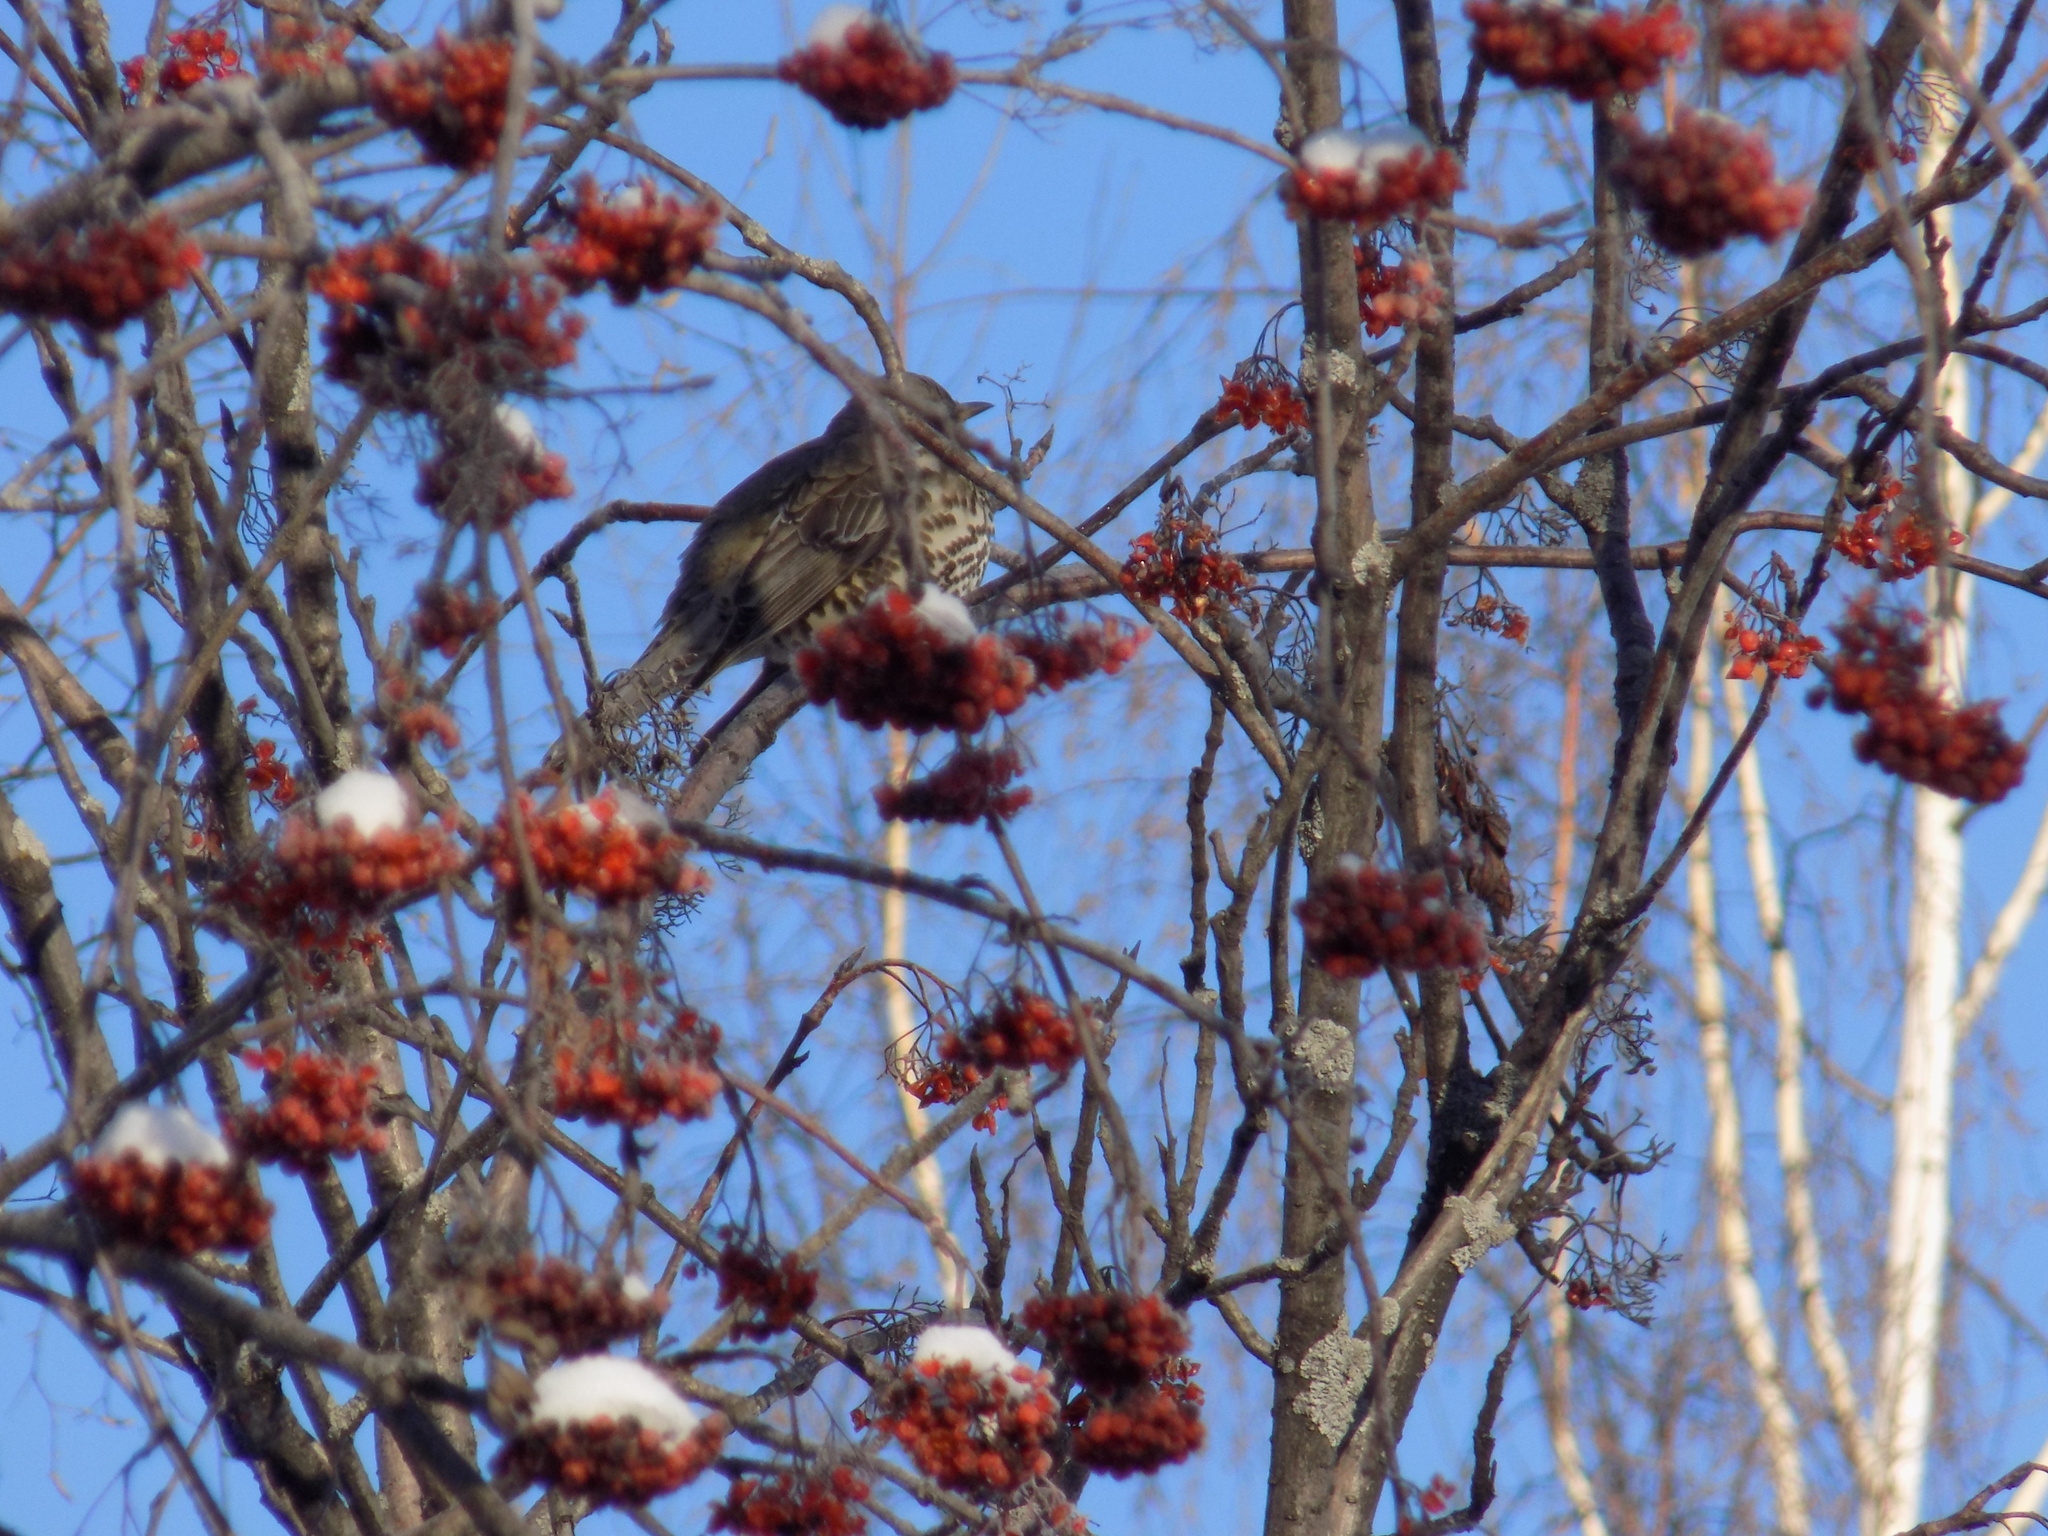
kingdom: Animalia
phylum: Chordata
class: Aves
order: Passeriformes
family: Turdidae
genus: Turdus
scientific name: Turdus viscivorus
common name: Mistle thrush
